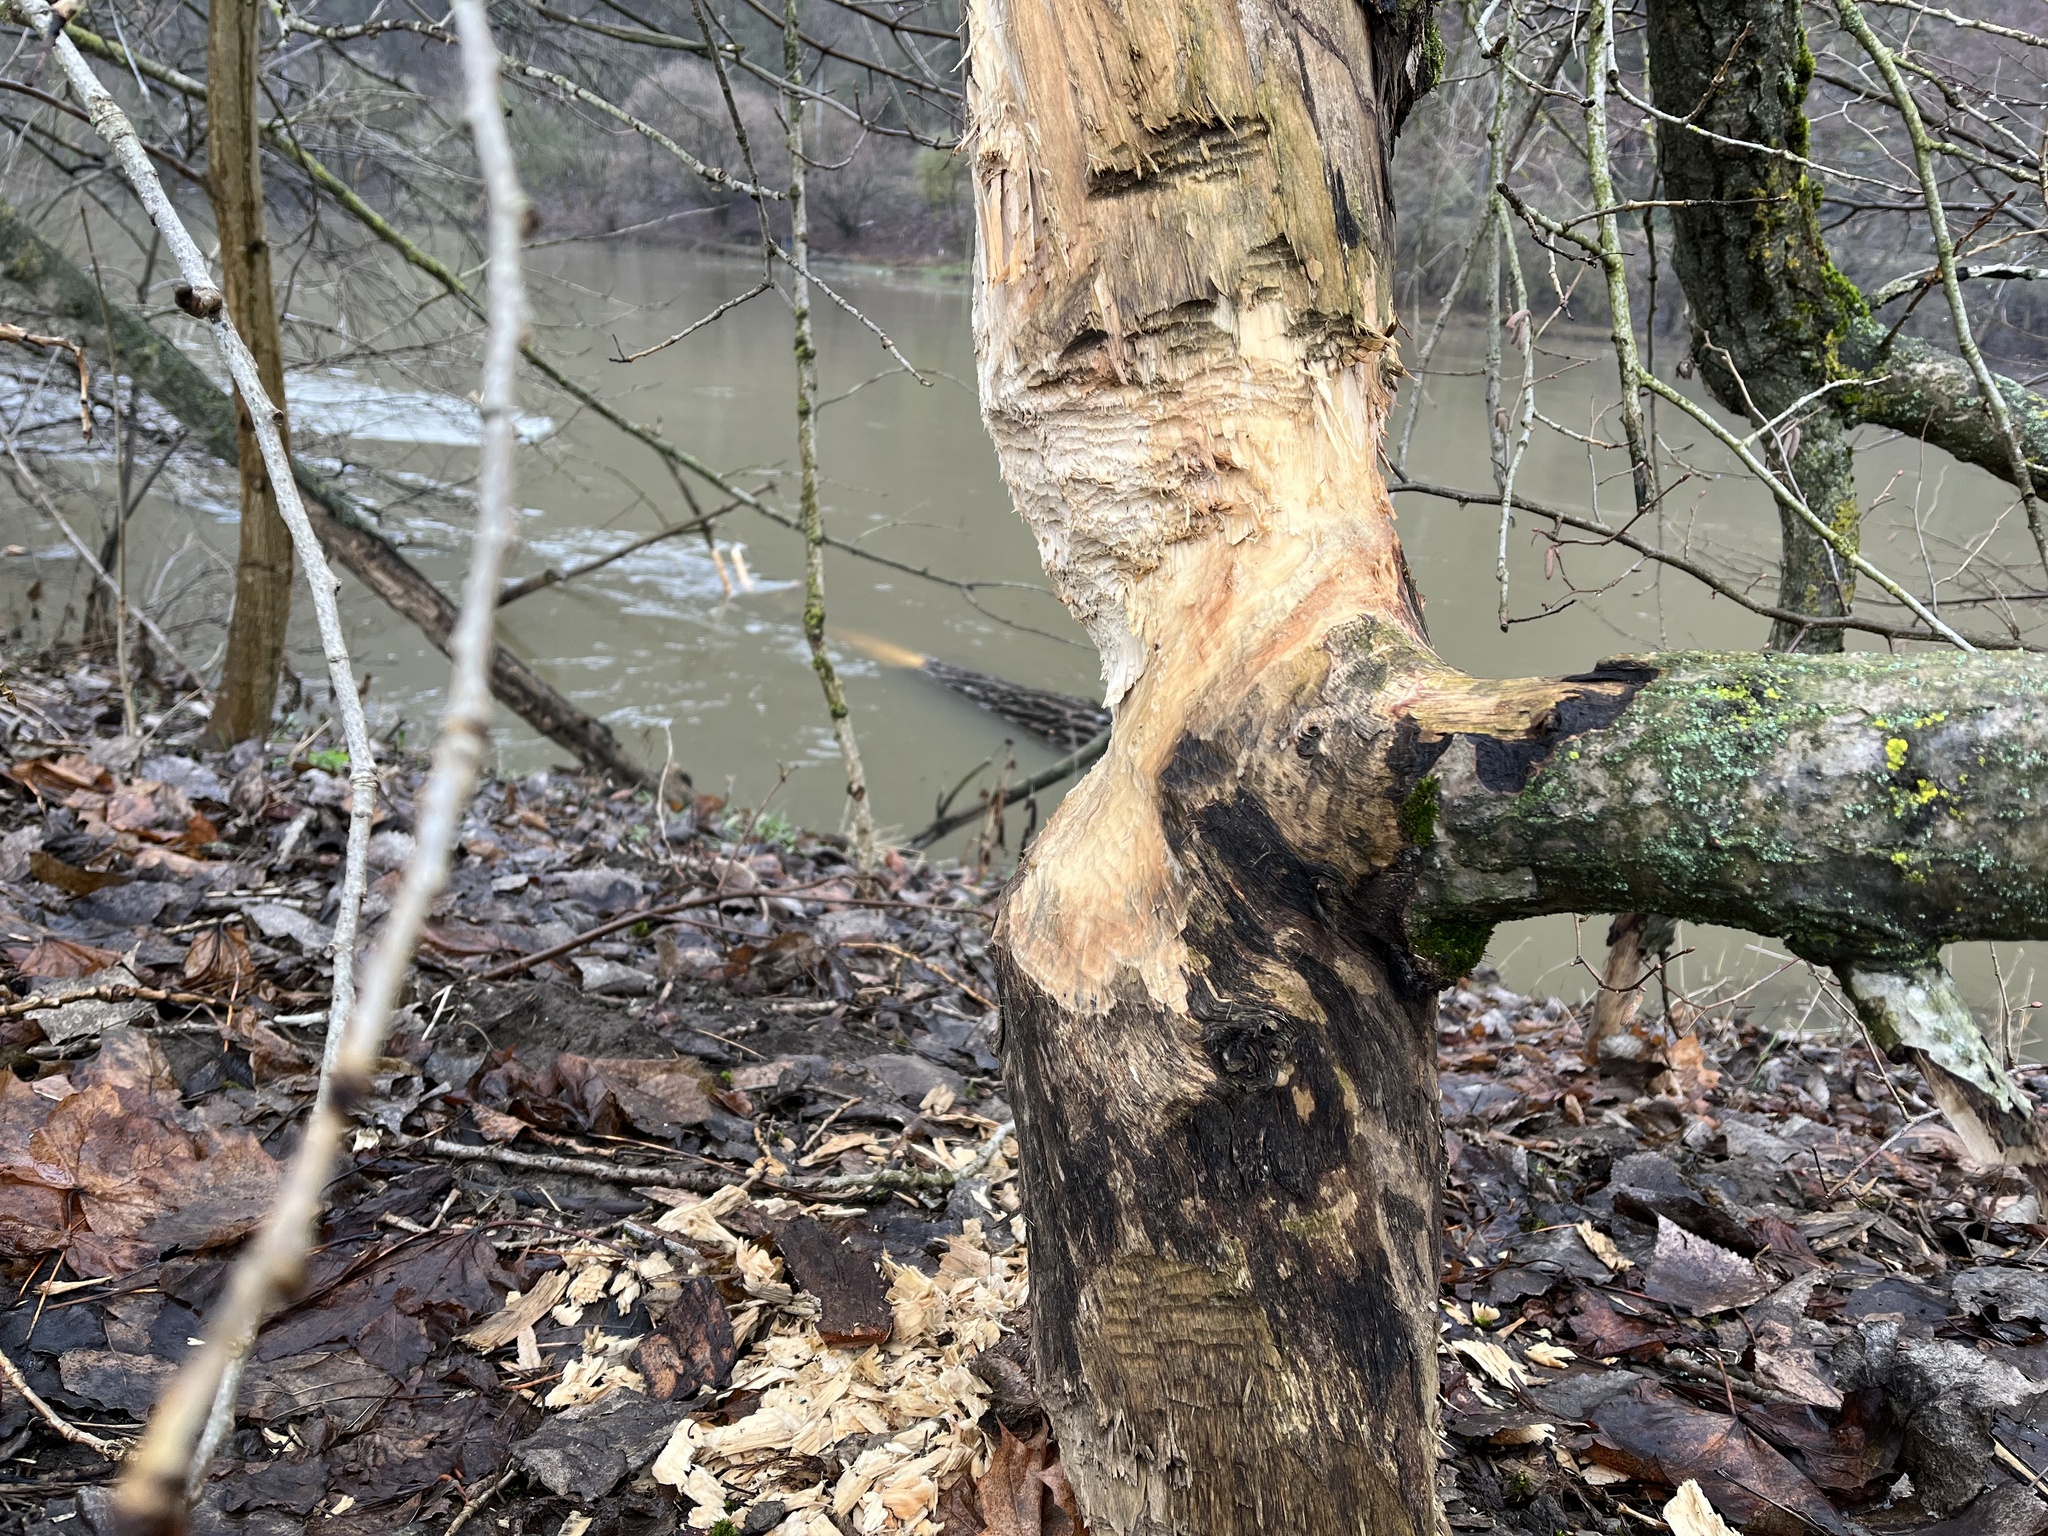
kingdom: Animalia
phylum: Chordata
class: Mammalia
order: Rodentia
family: Castoridae
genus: Castor
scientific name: Castor fiber
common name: Eurasian beaver
